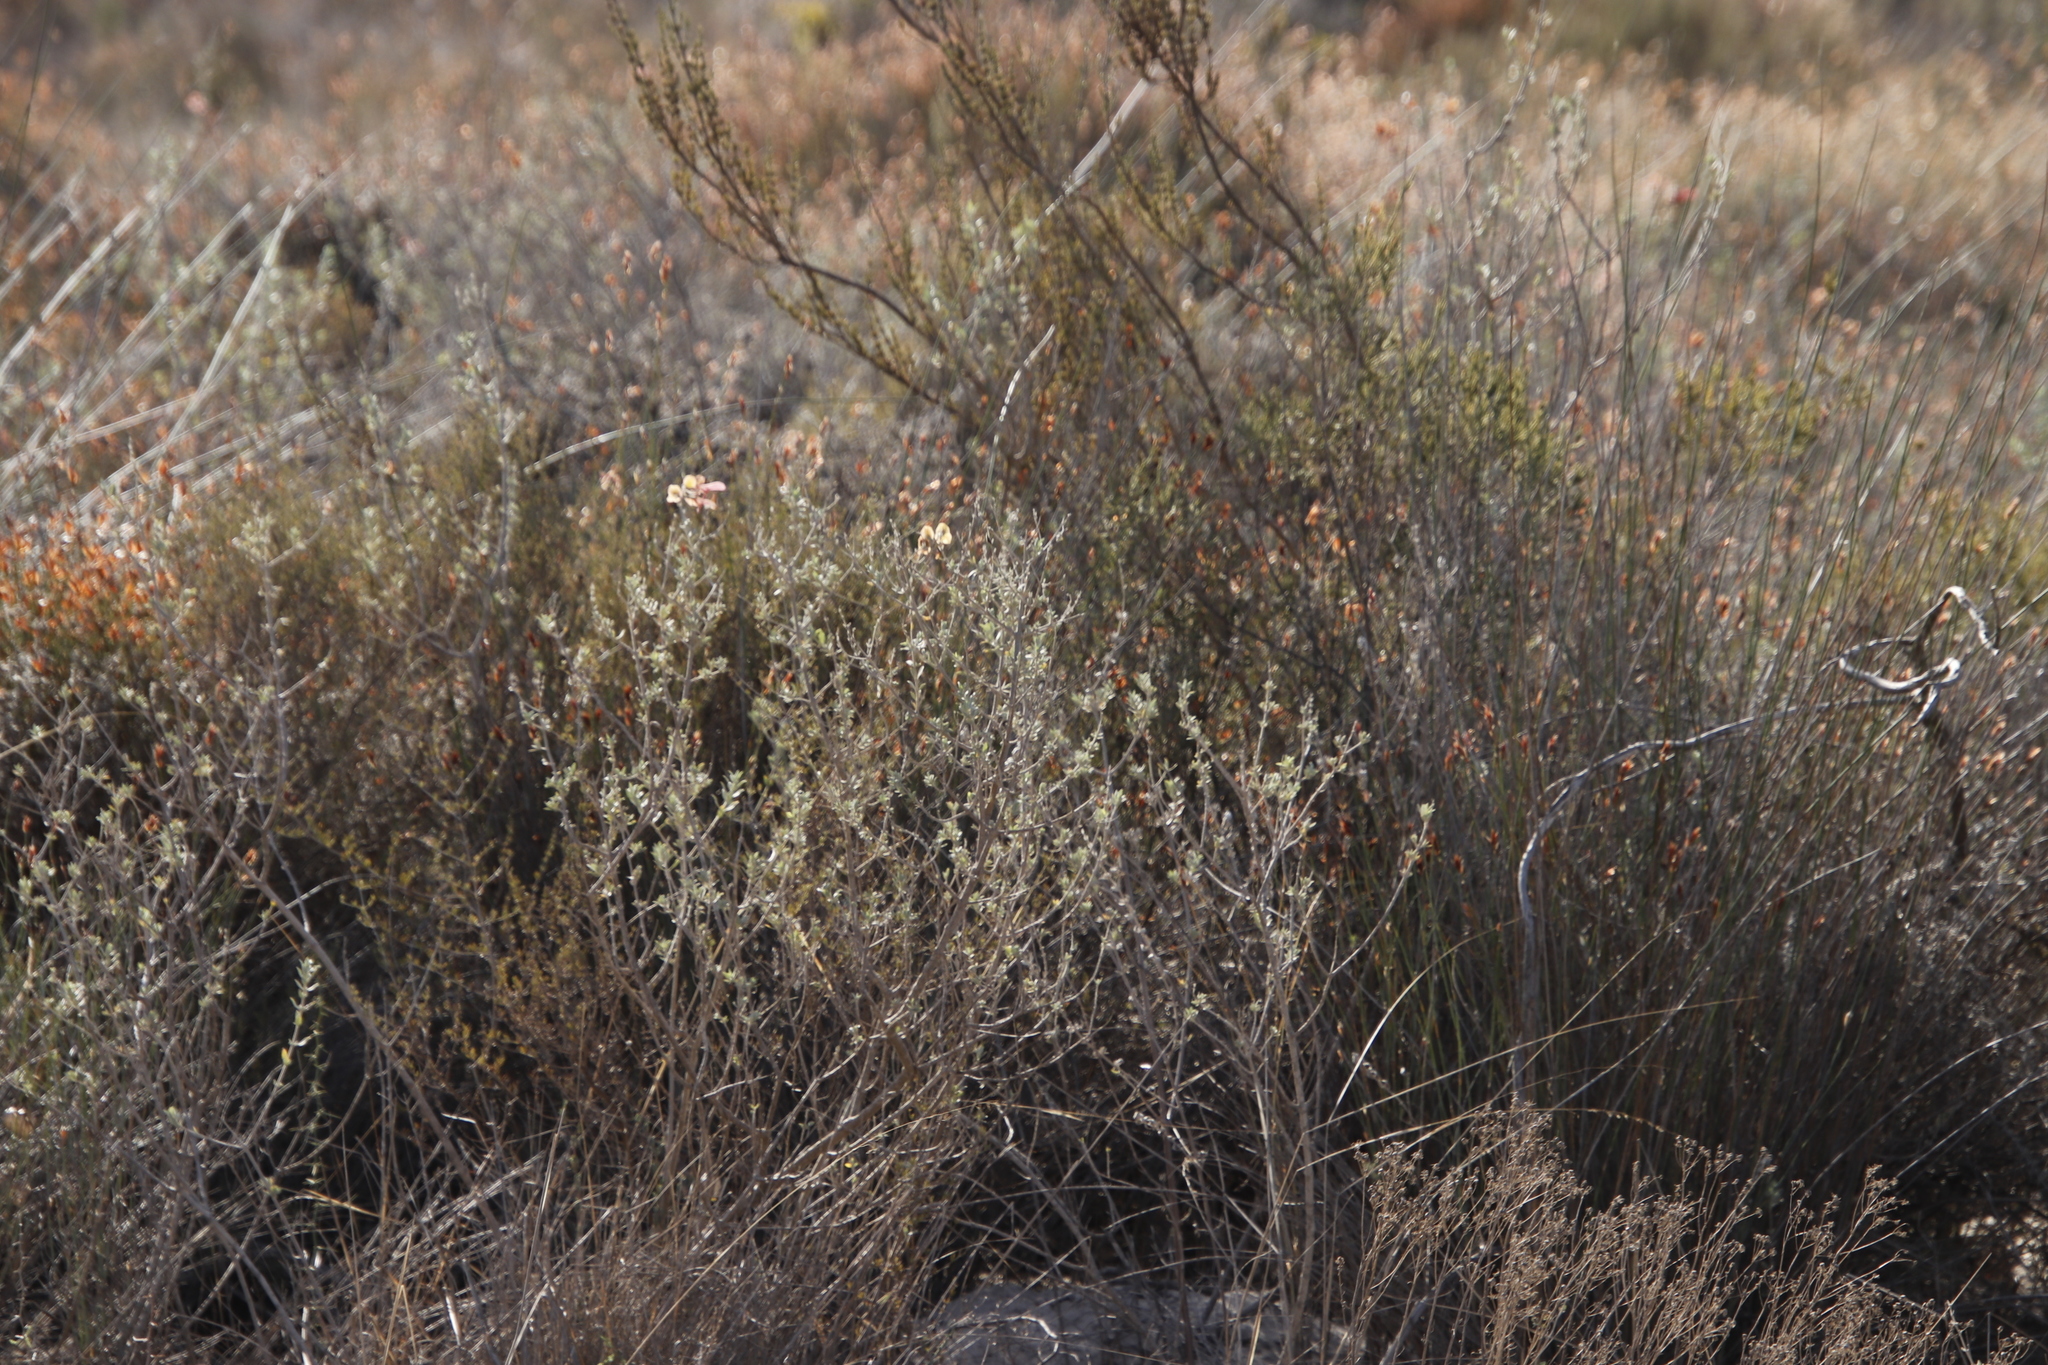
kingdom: Plantae
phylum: Tracheophyta
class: Magnoliopsida
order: Lamiales
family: Lamiaceae
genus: Salvia
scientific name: Salvia lanceolata
